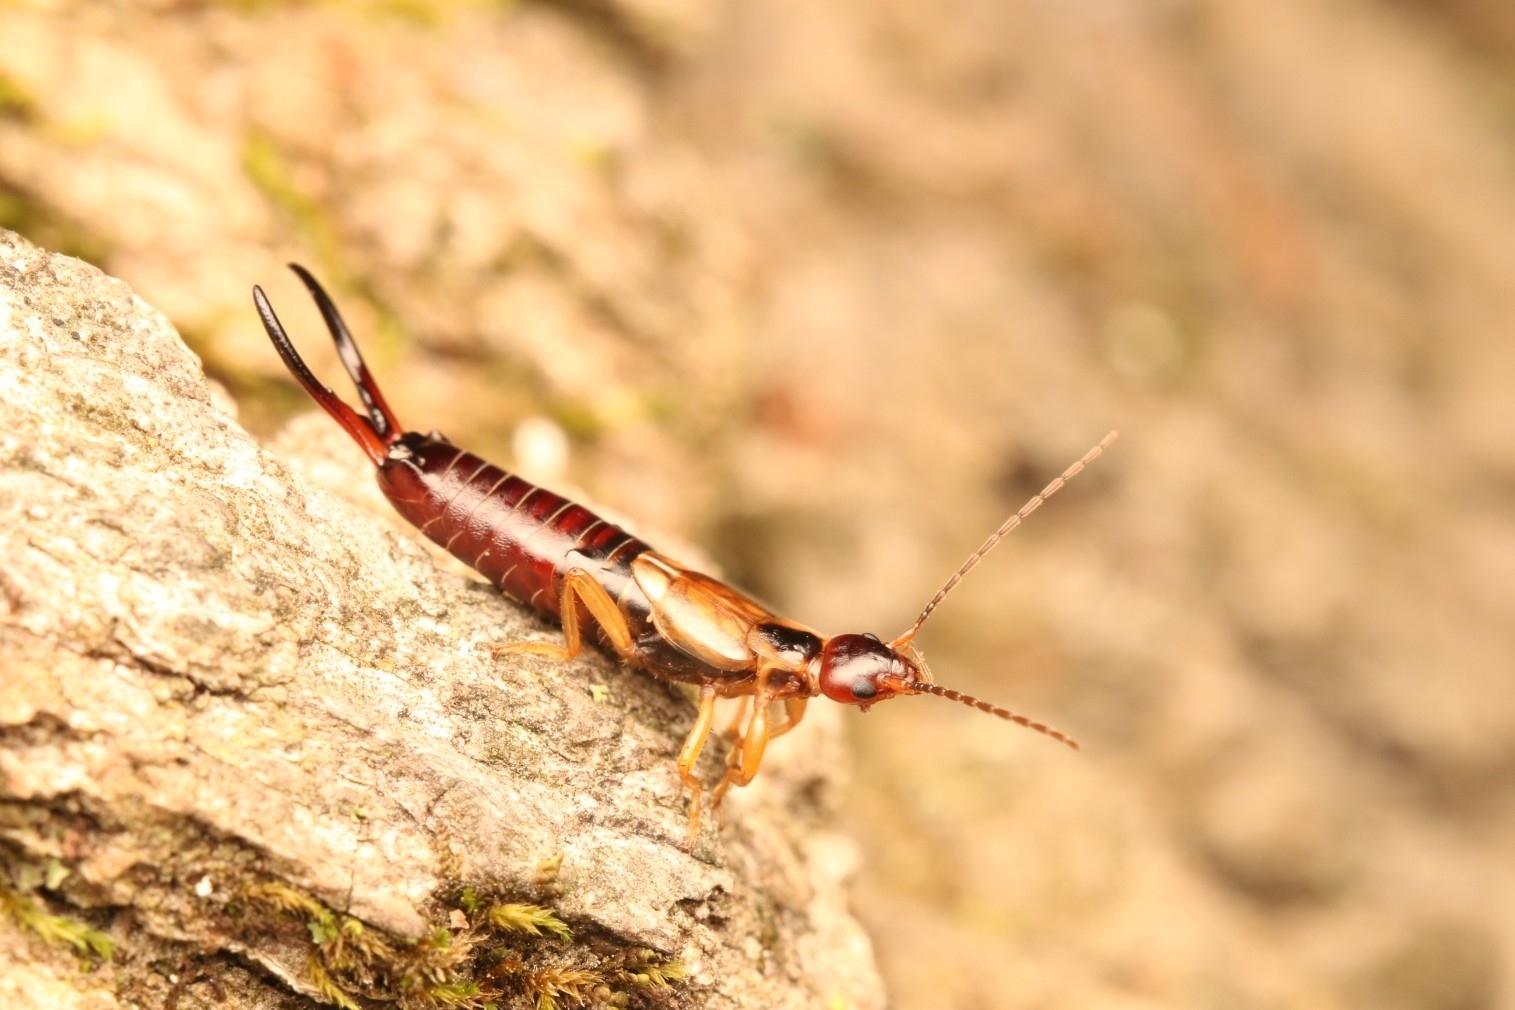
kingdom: Animalia
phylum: Arthropoda
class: Insecta
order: Dermaptera
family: Forficulidae
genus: Forficula
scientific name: Forficula
